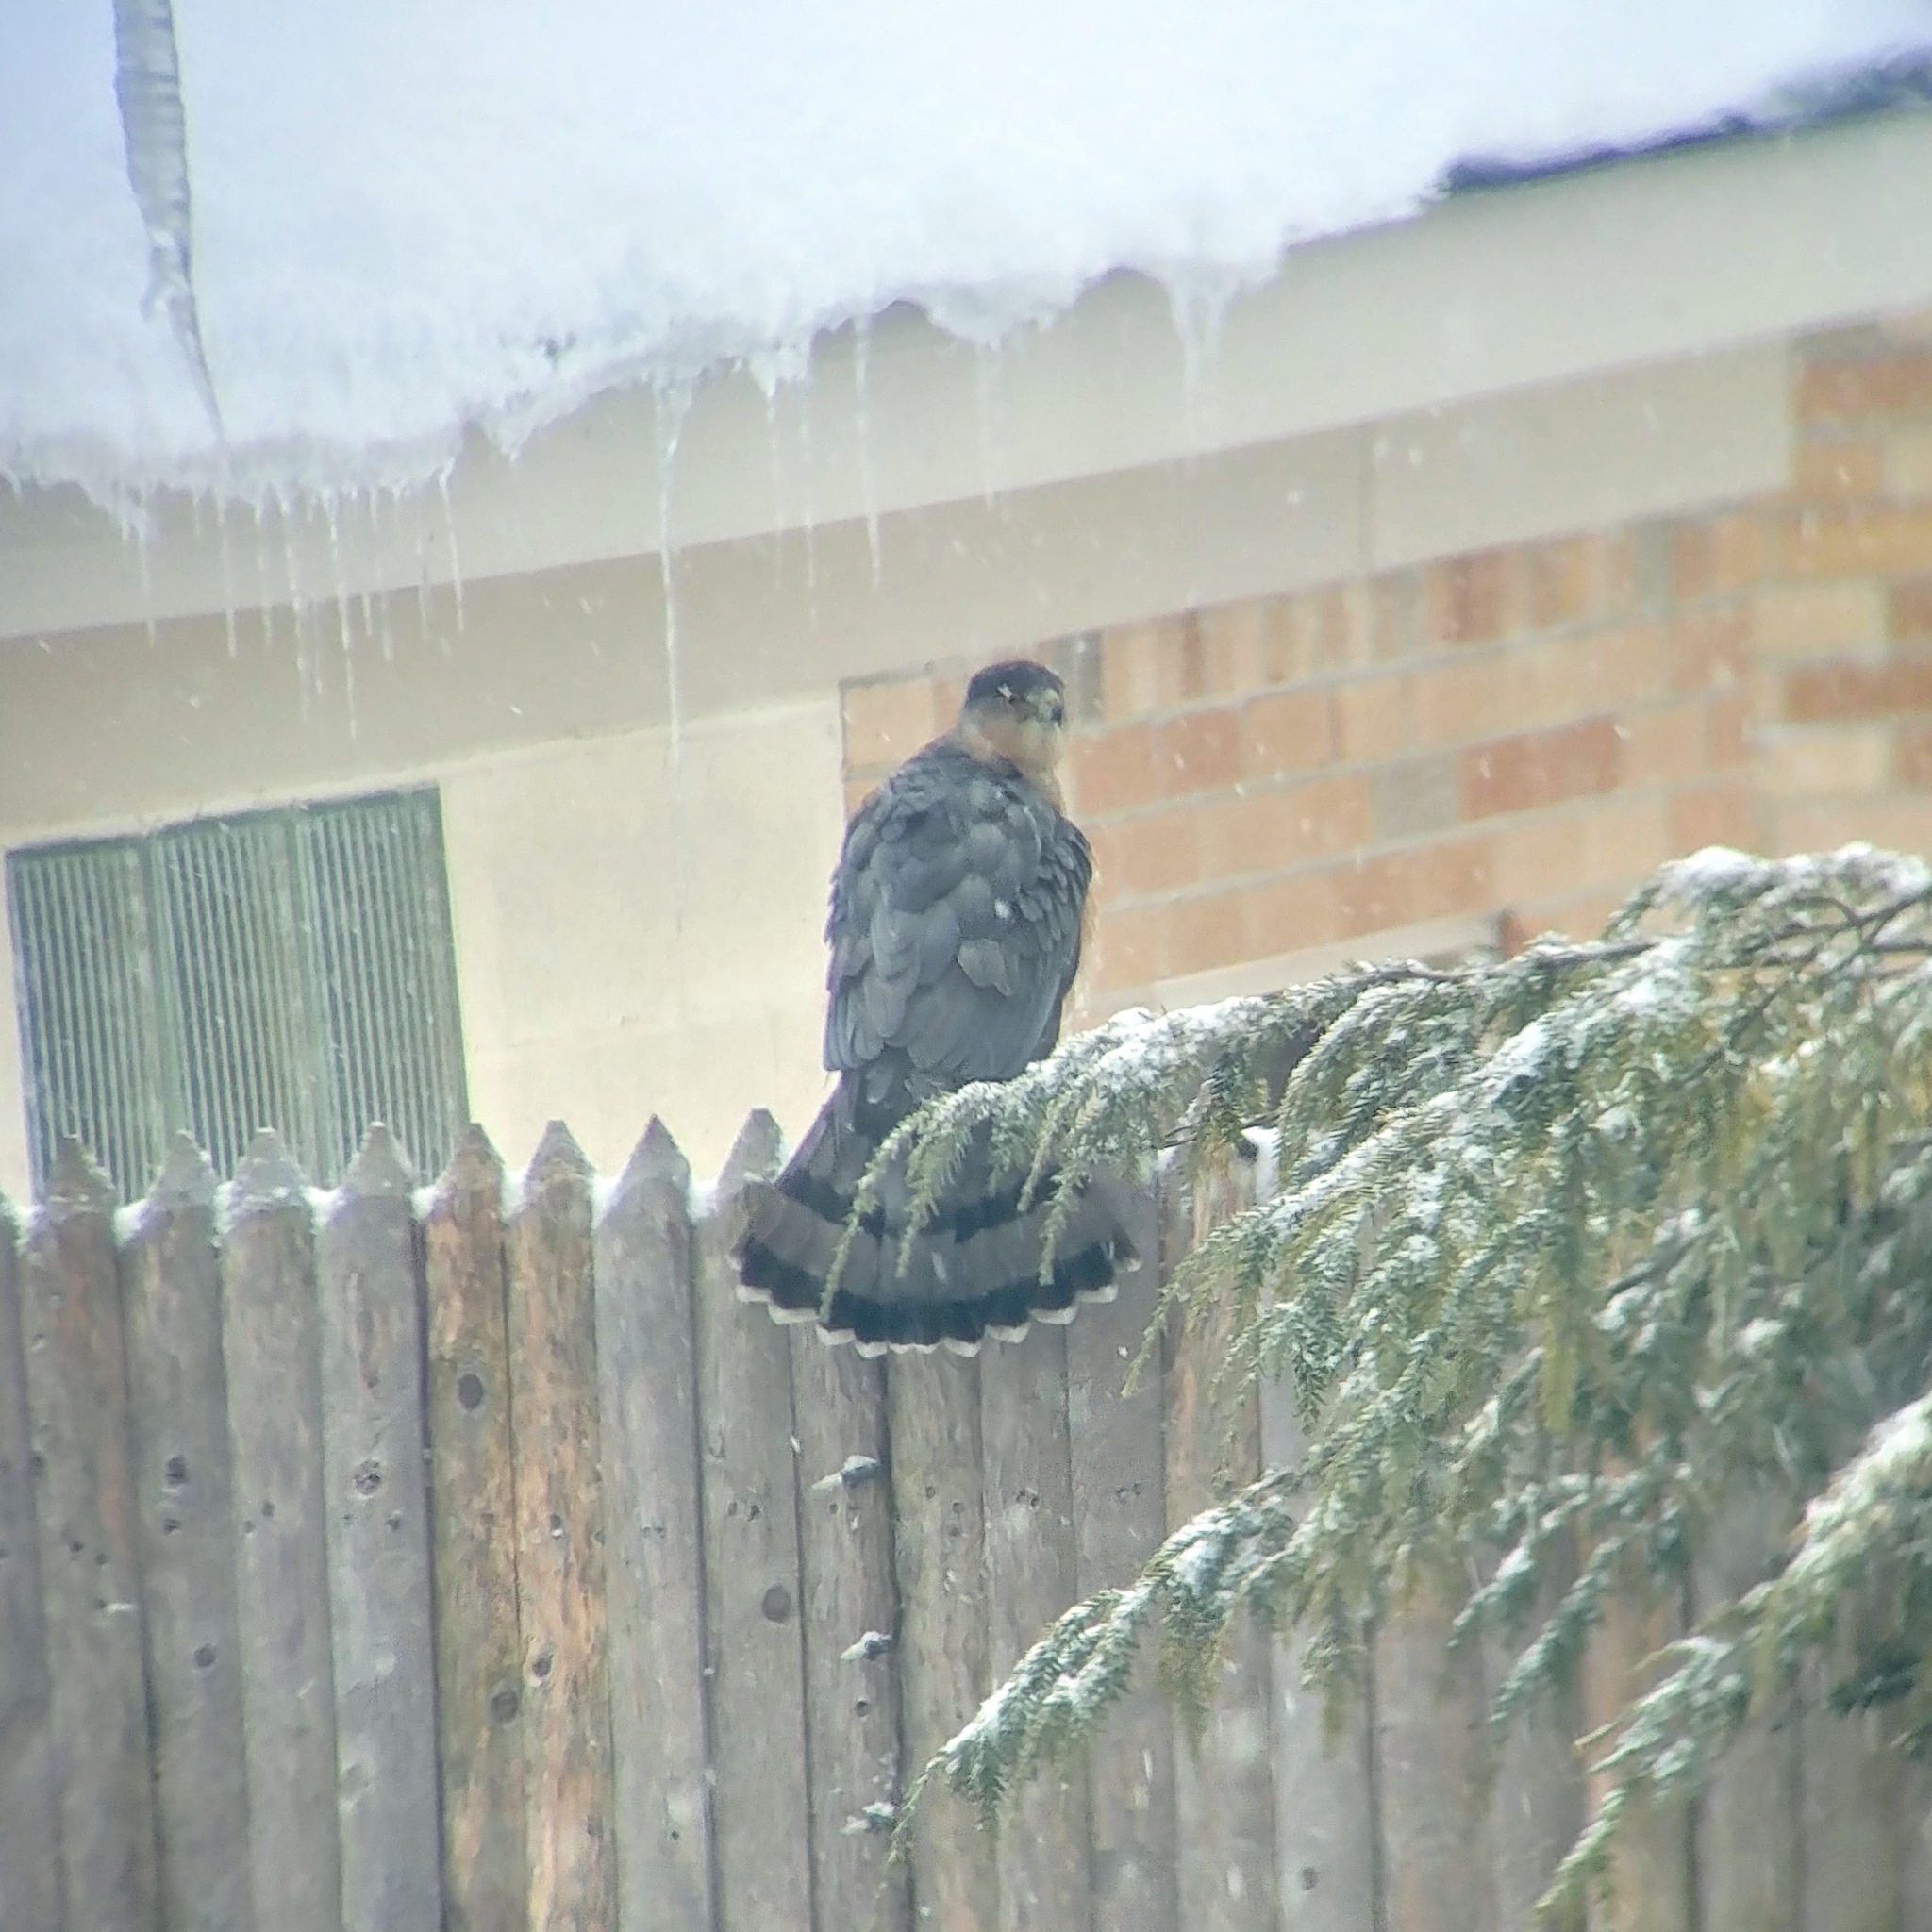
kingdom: Animalia
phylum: Chordata
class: Aves
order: Accipitriformes
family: Accipitridae
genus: Accipiter
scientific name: Accipiter cooperii
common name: Cooper's hawk
